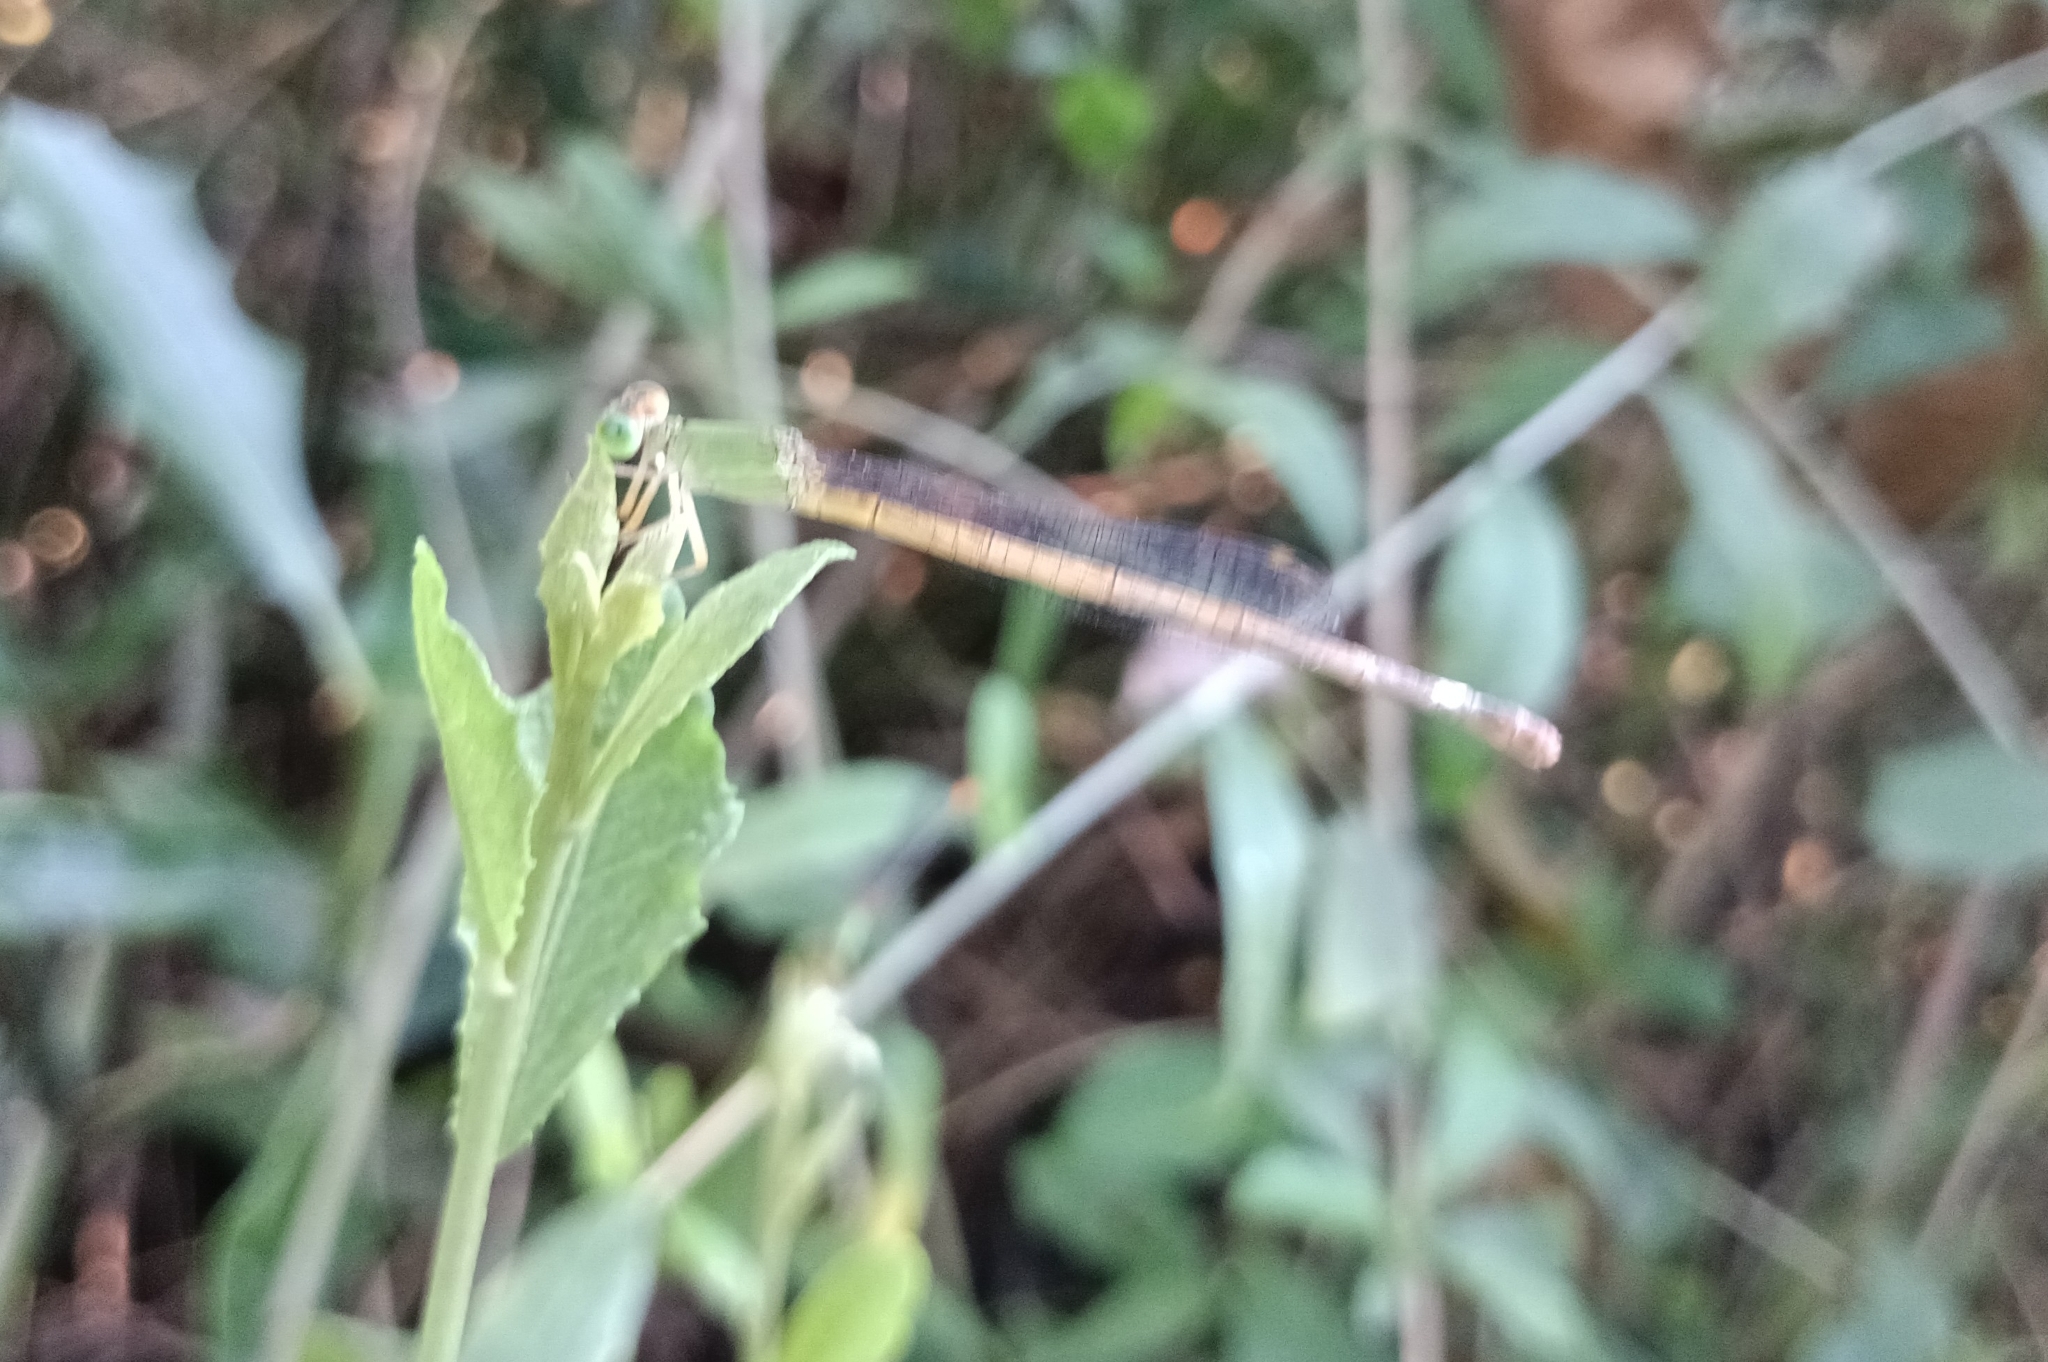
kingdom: Animalia
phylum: Arthropoda
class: Insecta
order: Odonata
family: Coenagrionidae
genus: Ceriagrion
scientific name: Ceriagrion coromandelianum
